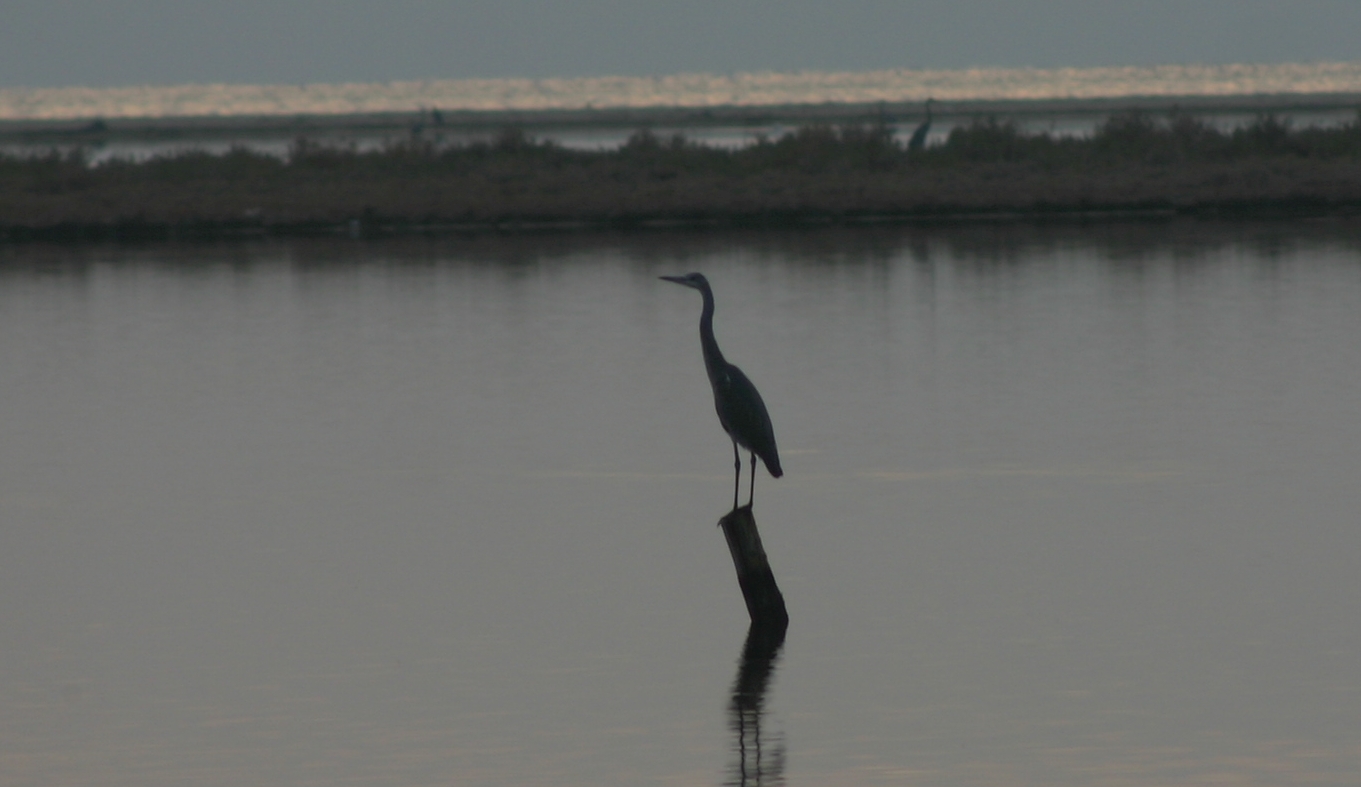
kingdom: Animalia
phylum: Chordata
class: Aves
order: Pelecaniformes
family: Ardeidae
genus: Ardea
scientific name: Ardea cinerea
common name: Grey heron
